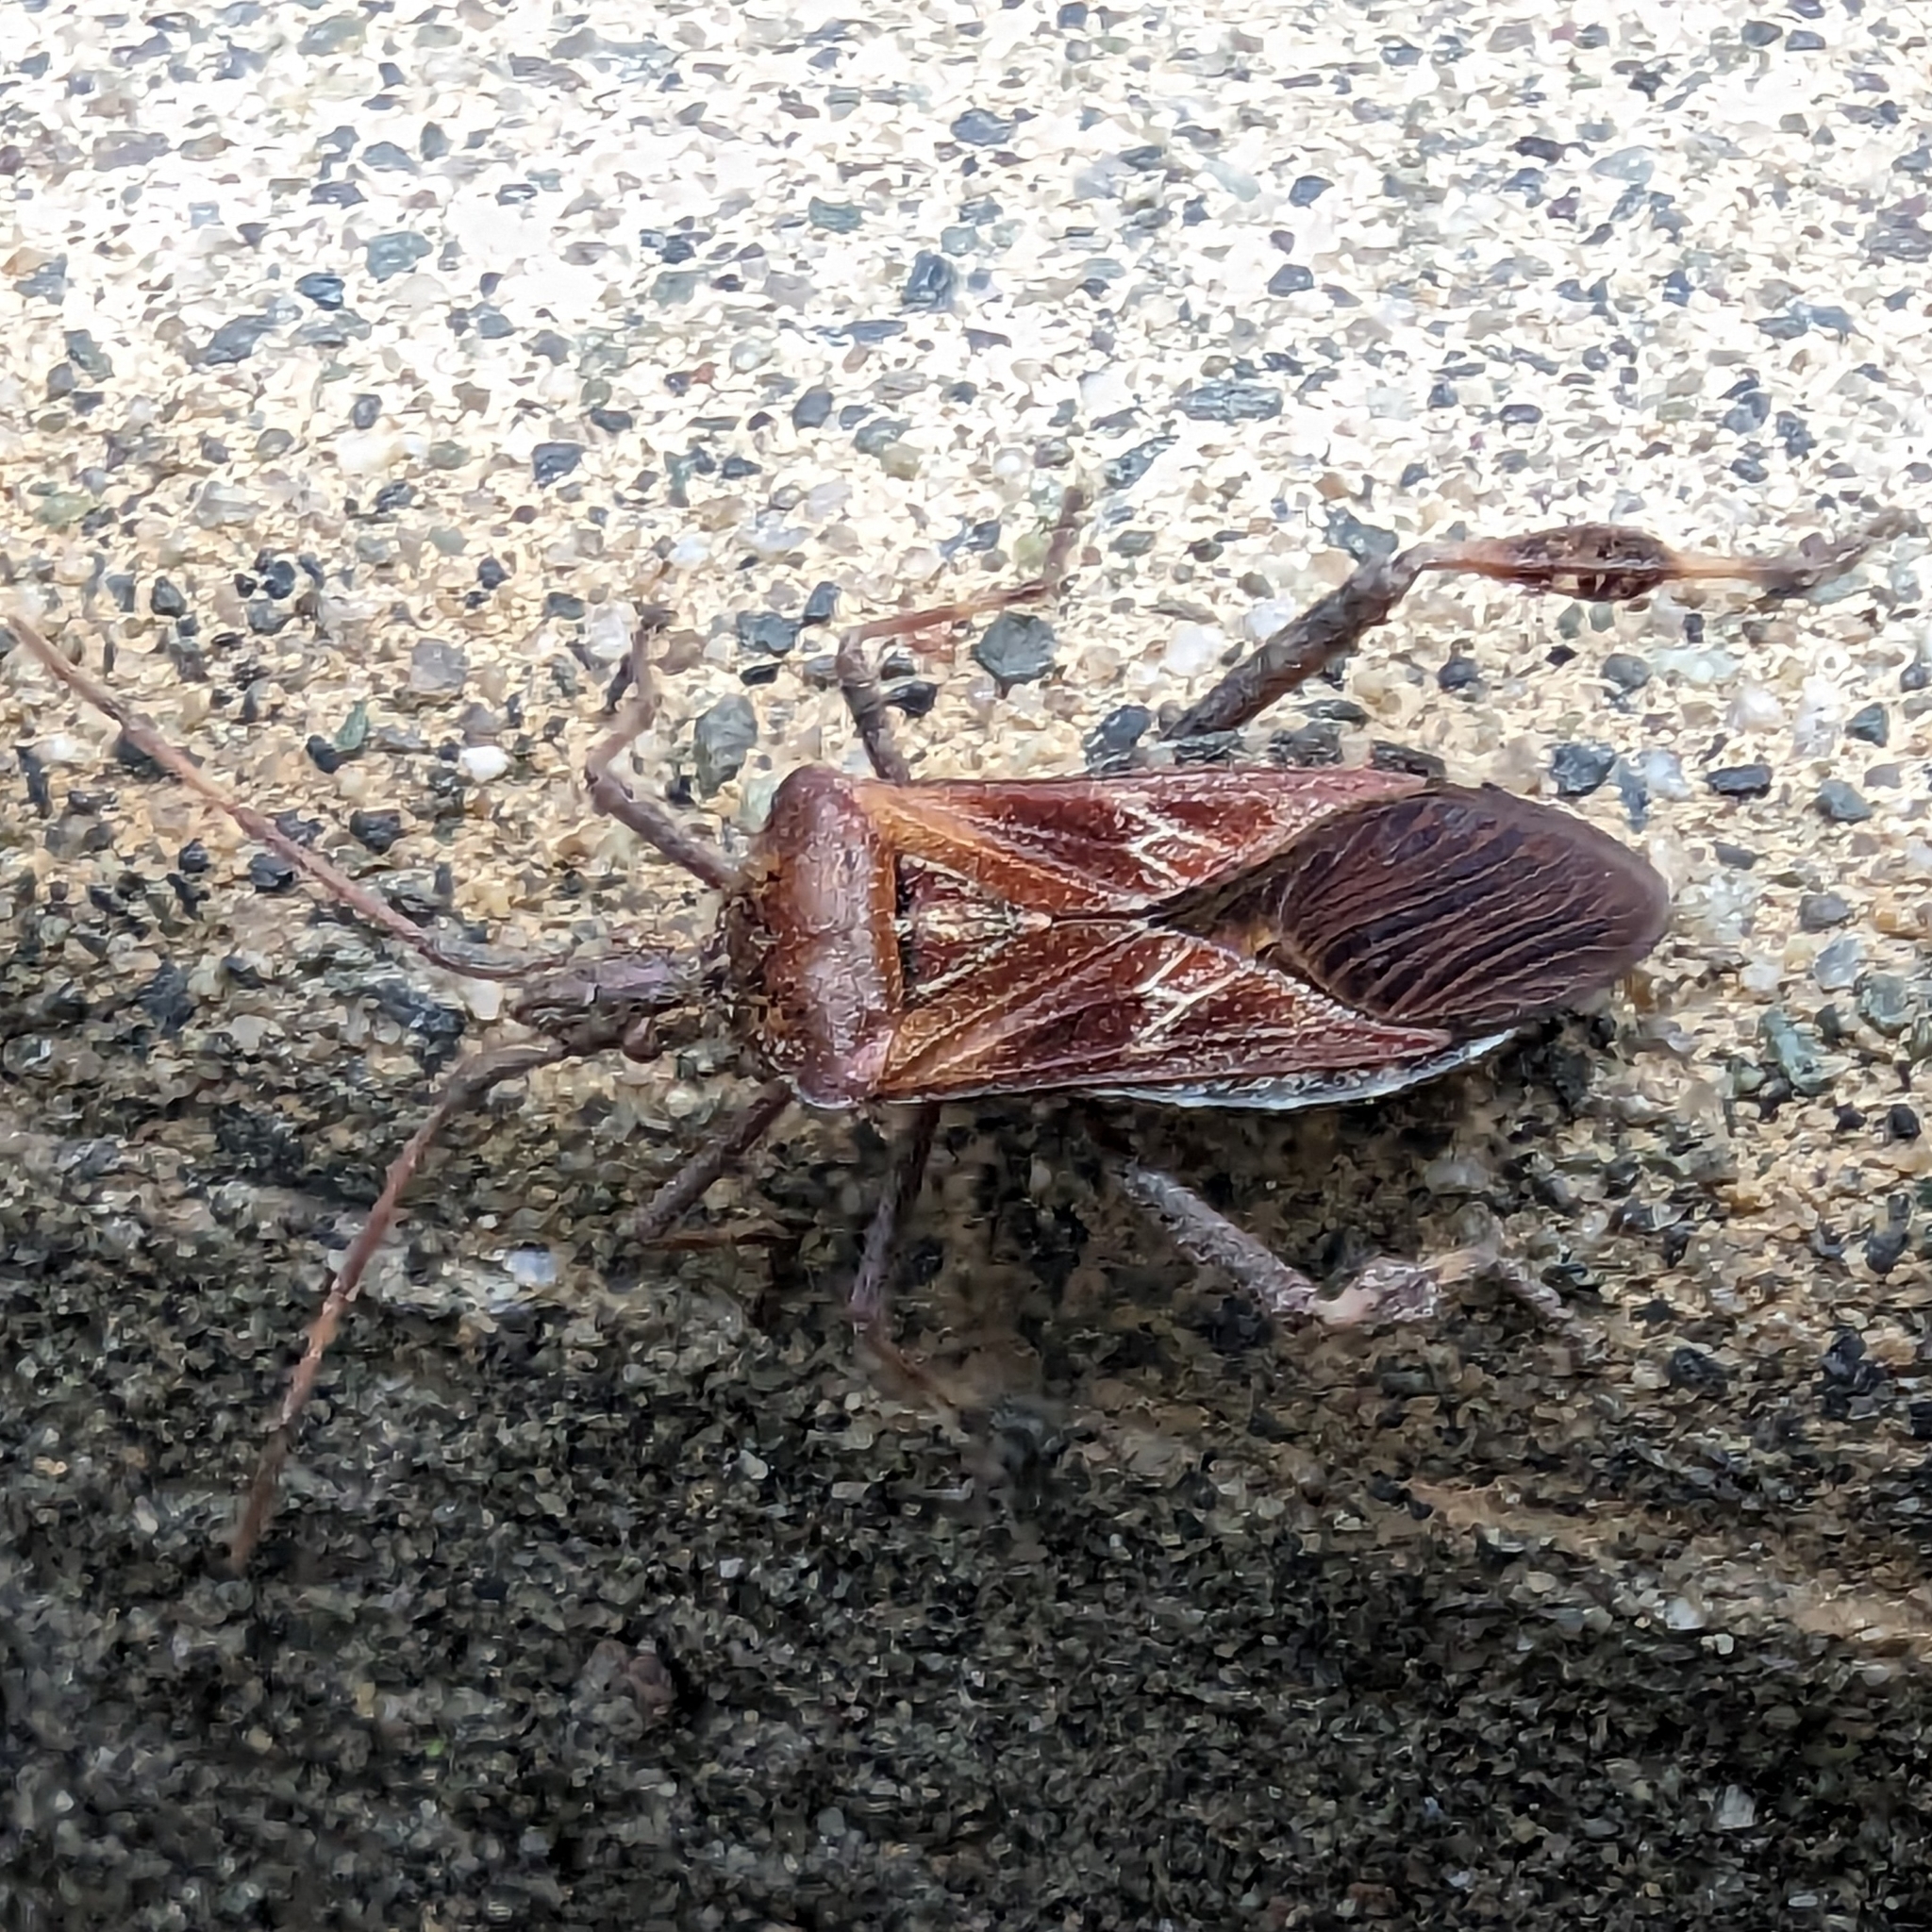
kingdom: Animalia
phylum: Arthropoda
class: Insecta
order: Hemiptera
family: Coreidae
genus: Leptoglossus
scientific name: Leptoglossus occidentalis
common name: Western conifer-seed bug
